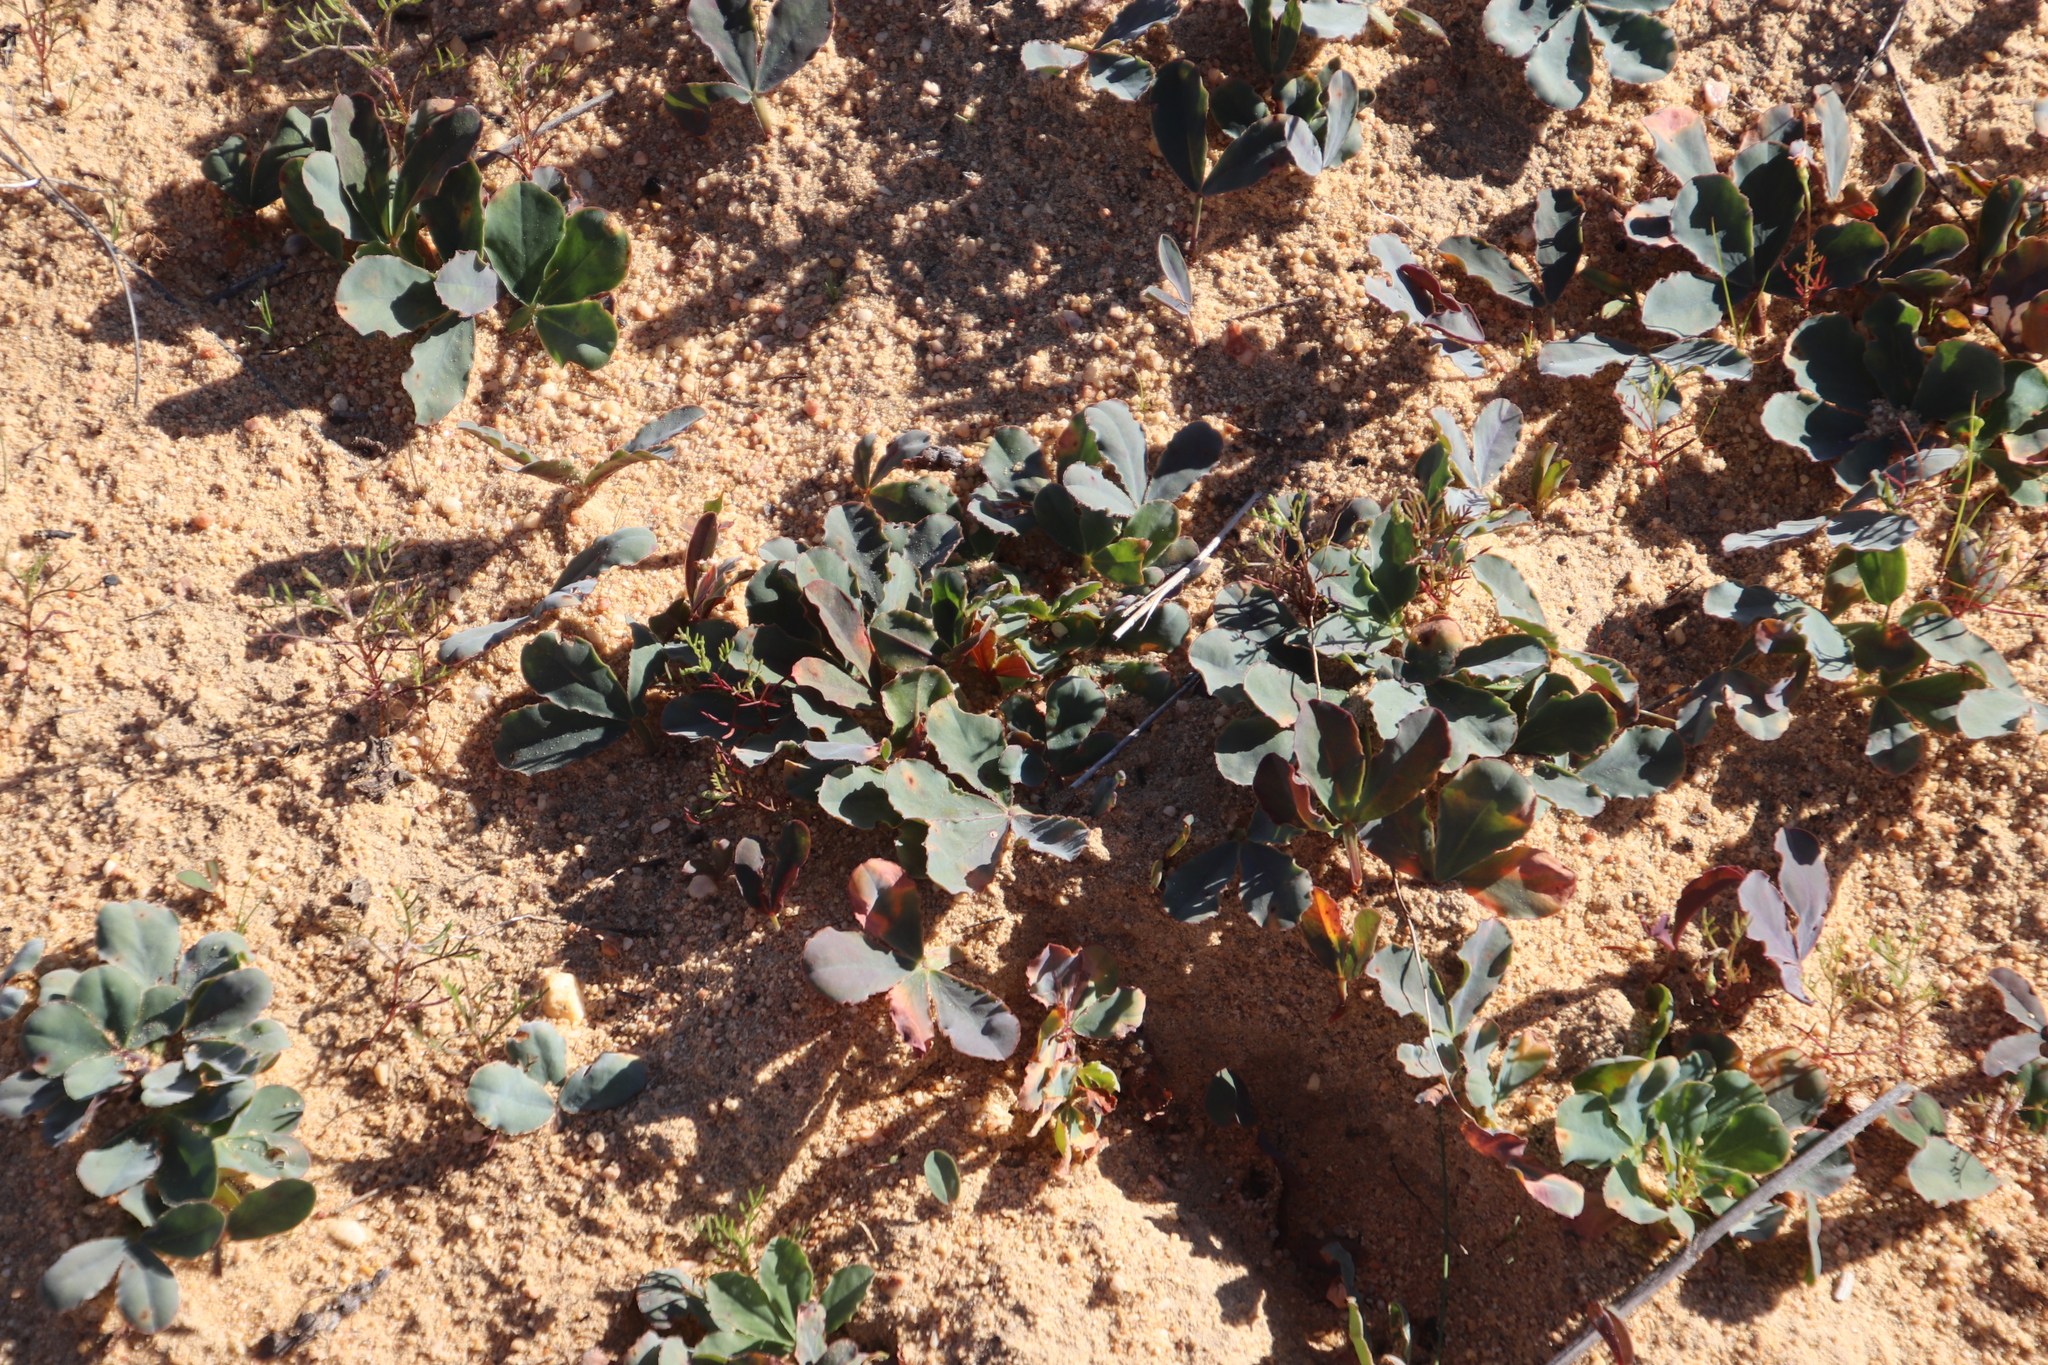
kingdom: Plantae
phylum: Tracheophyta
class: Magnoliopsida
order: Oxalidales
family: Oxalidaceae
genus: Oxalis
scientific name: Oxalis flava
